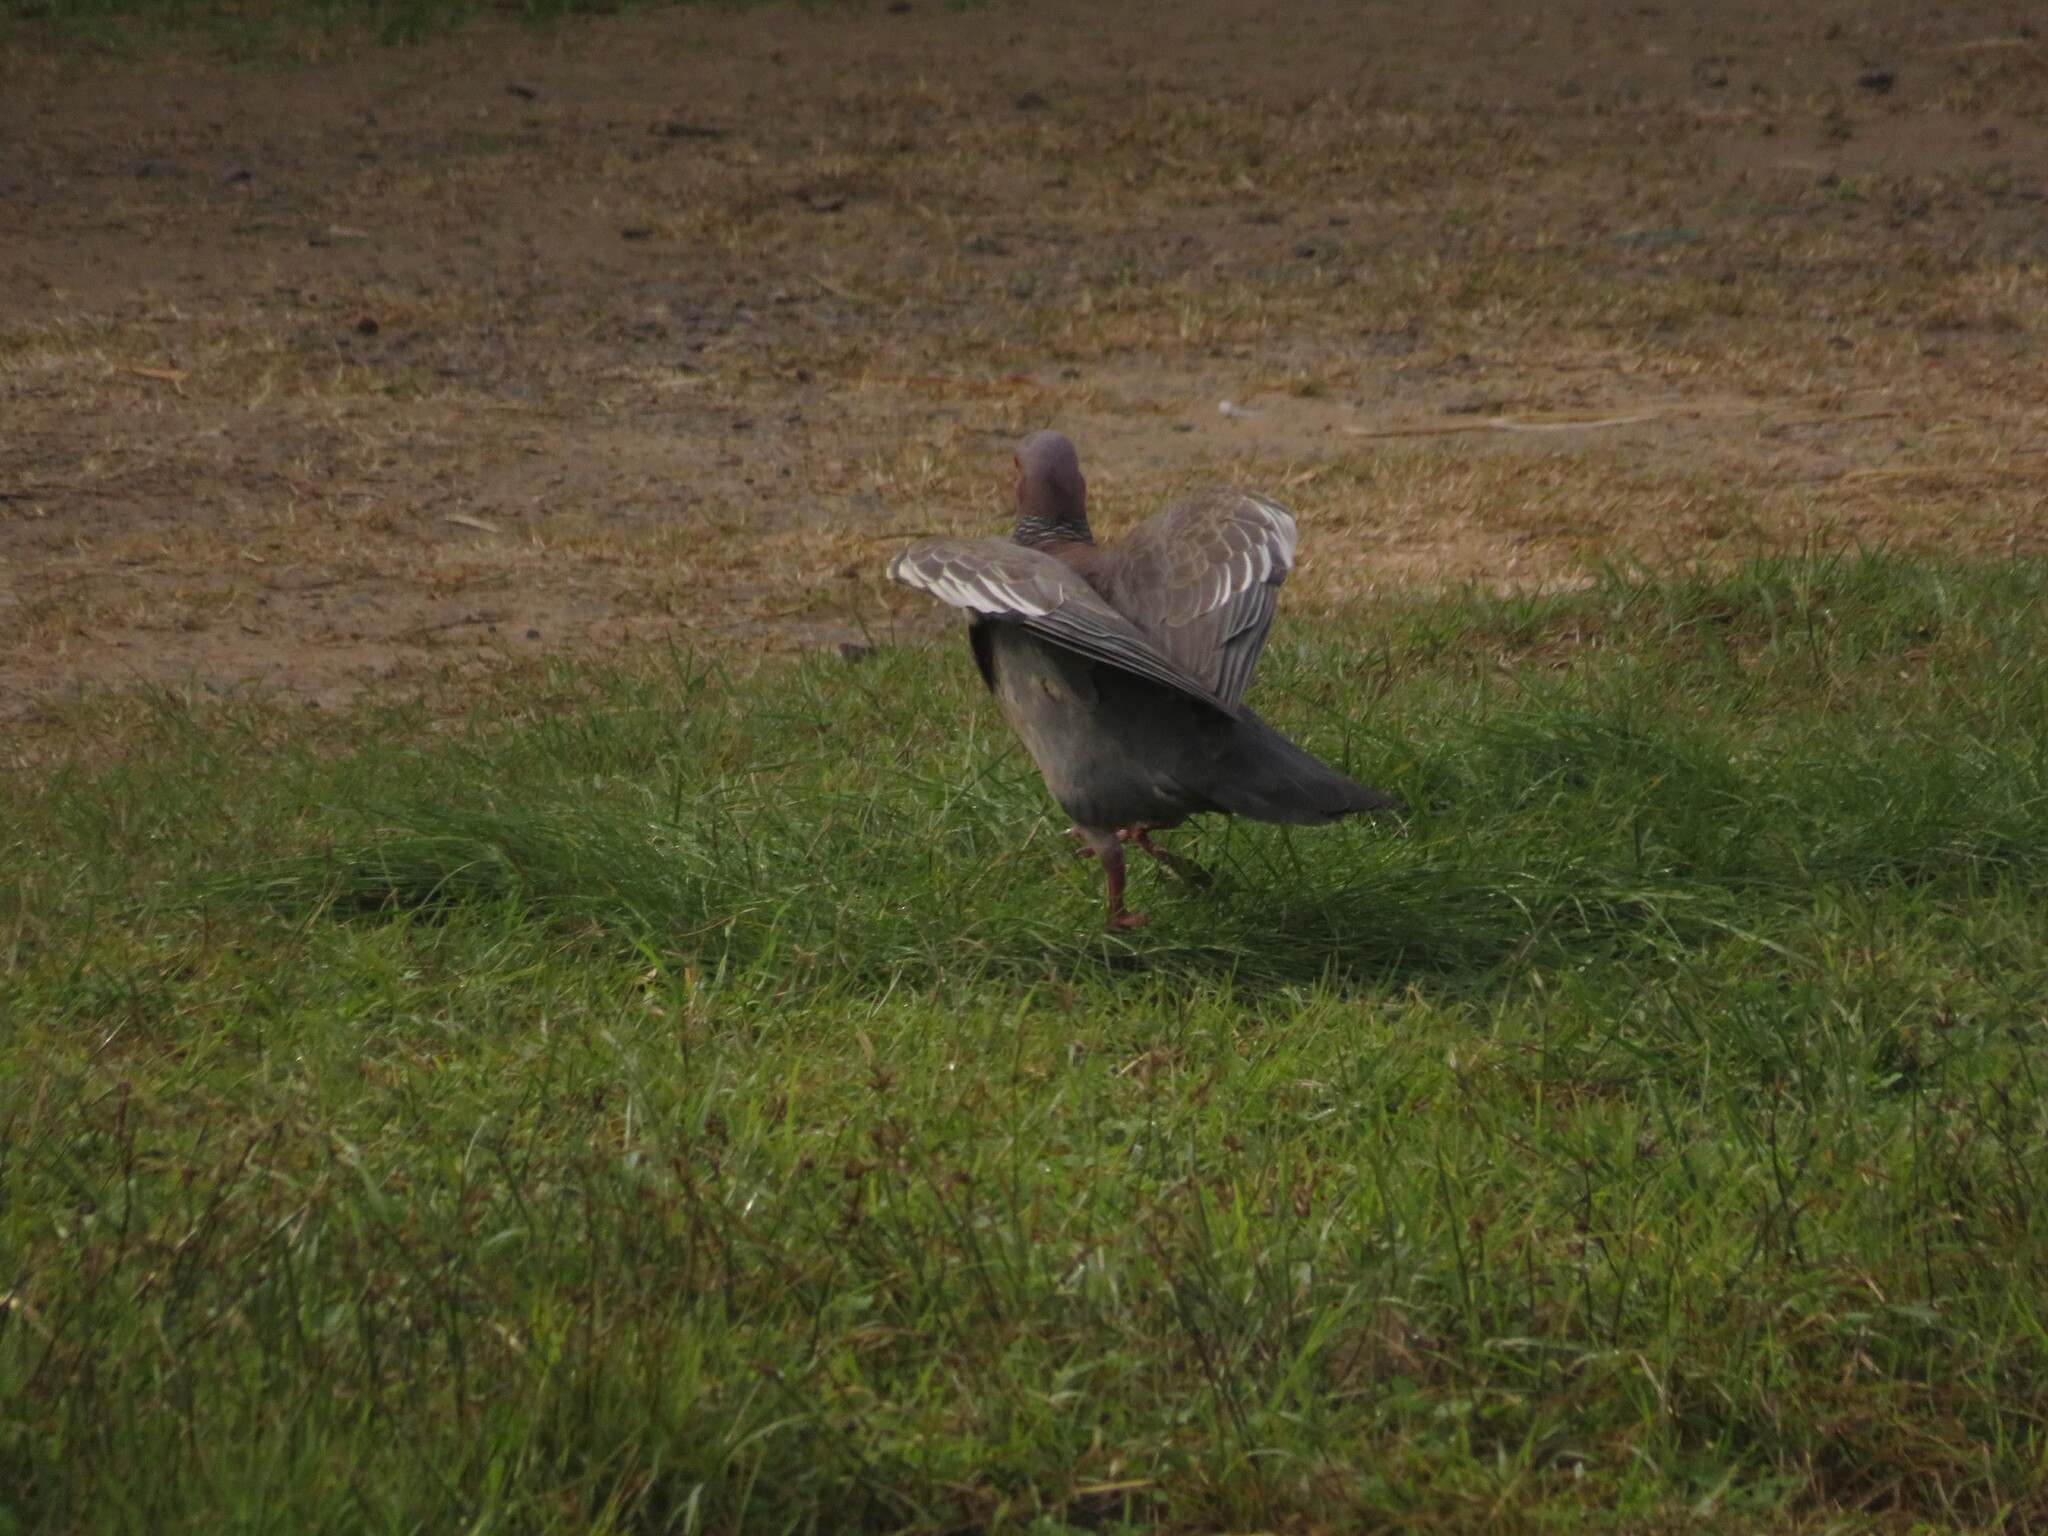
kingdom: Animalia
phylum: Chordata
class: Aves
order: Columbiformes
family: Columbidae
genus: Patagioenas
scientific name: Patagioenas picazuro
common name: Picazuro pigeon
